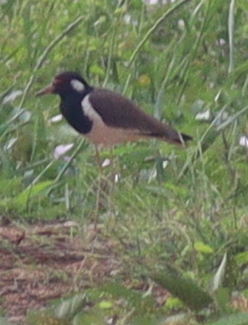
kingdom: Animalia
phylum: Chordata
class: Aves
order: Charadriiformes
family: Charadriidae
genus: Vanellus
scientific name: Vanellus indicus
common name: Red-wattled lapwing
